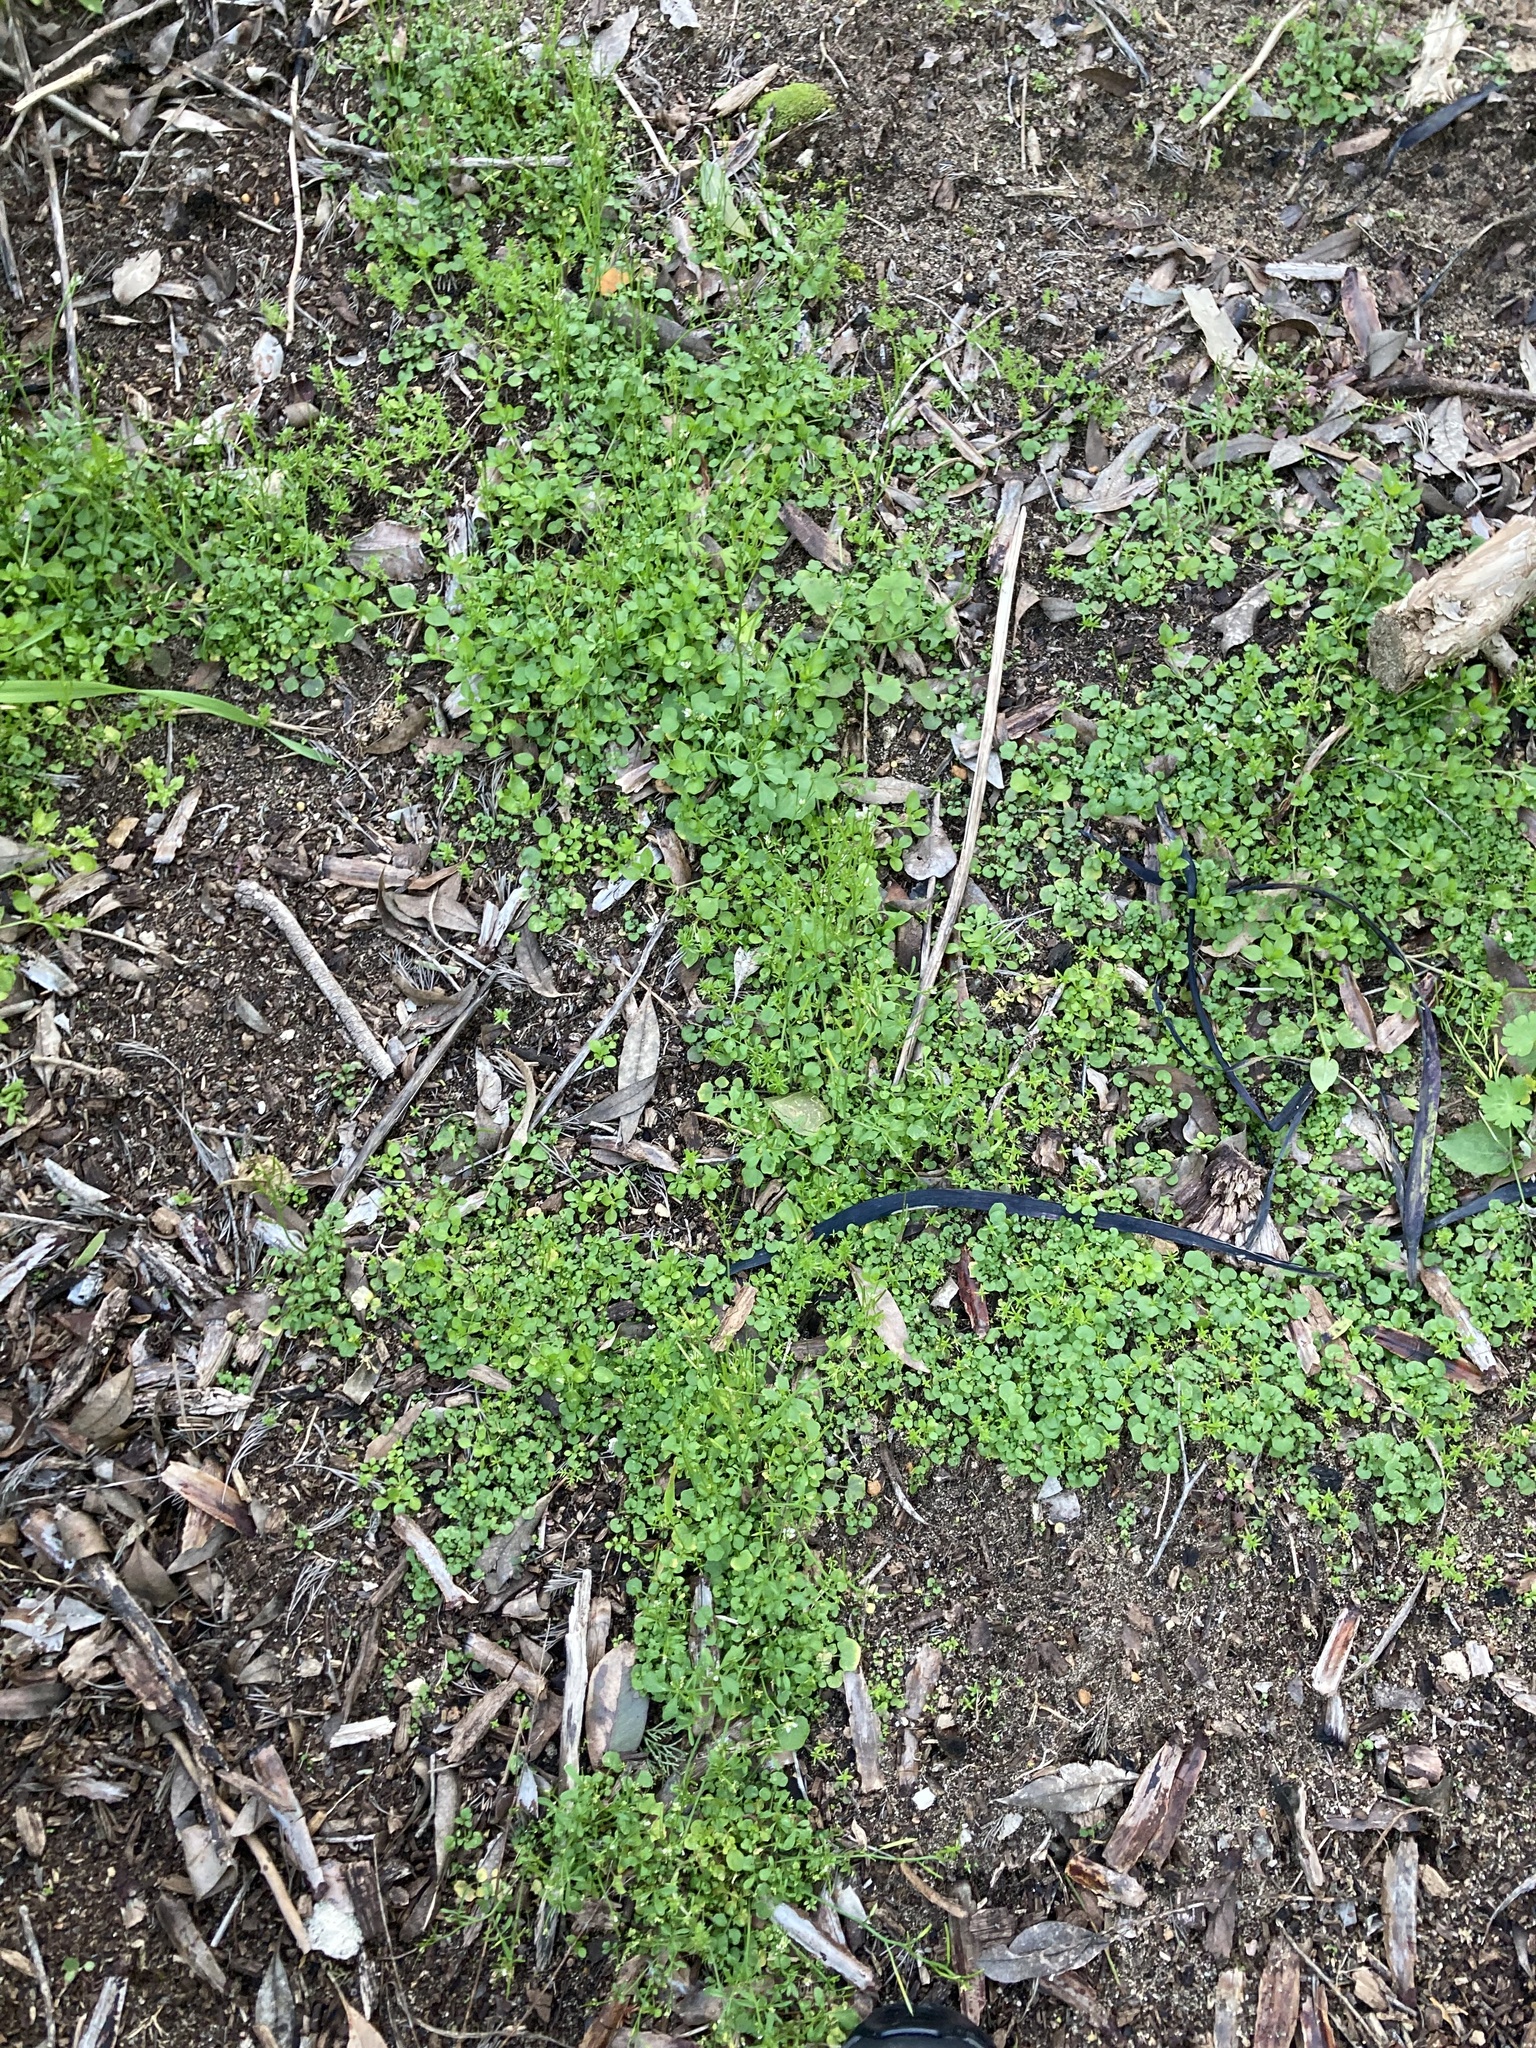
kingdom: Plantae
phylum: Tracheophyta
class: Magnoliopsida
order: Brassicales
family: Brassicaceae
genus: Cardamine
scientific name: Cardamine hirsuta
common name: Hairy bittercress
